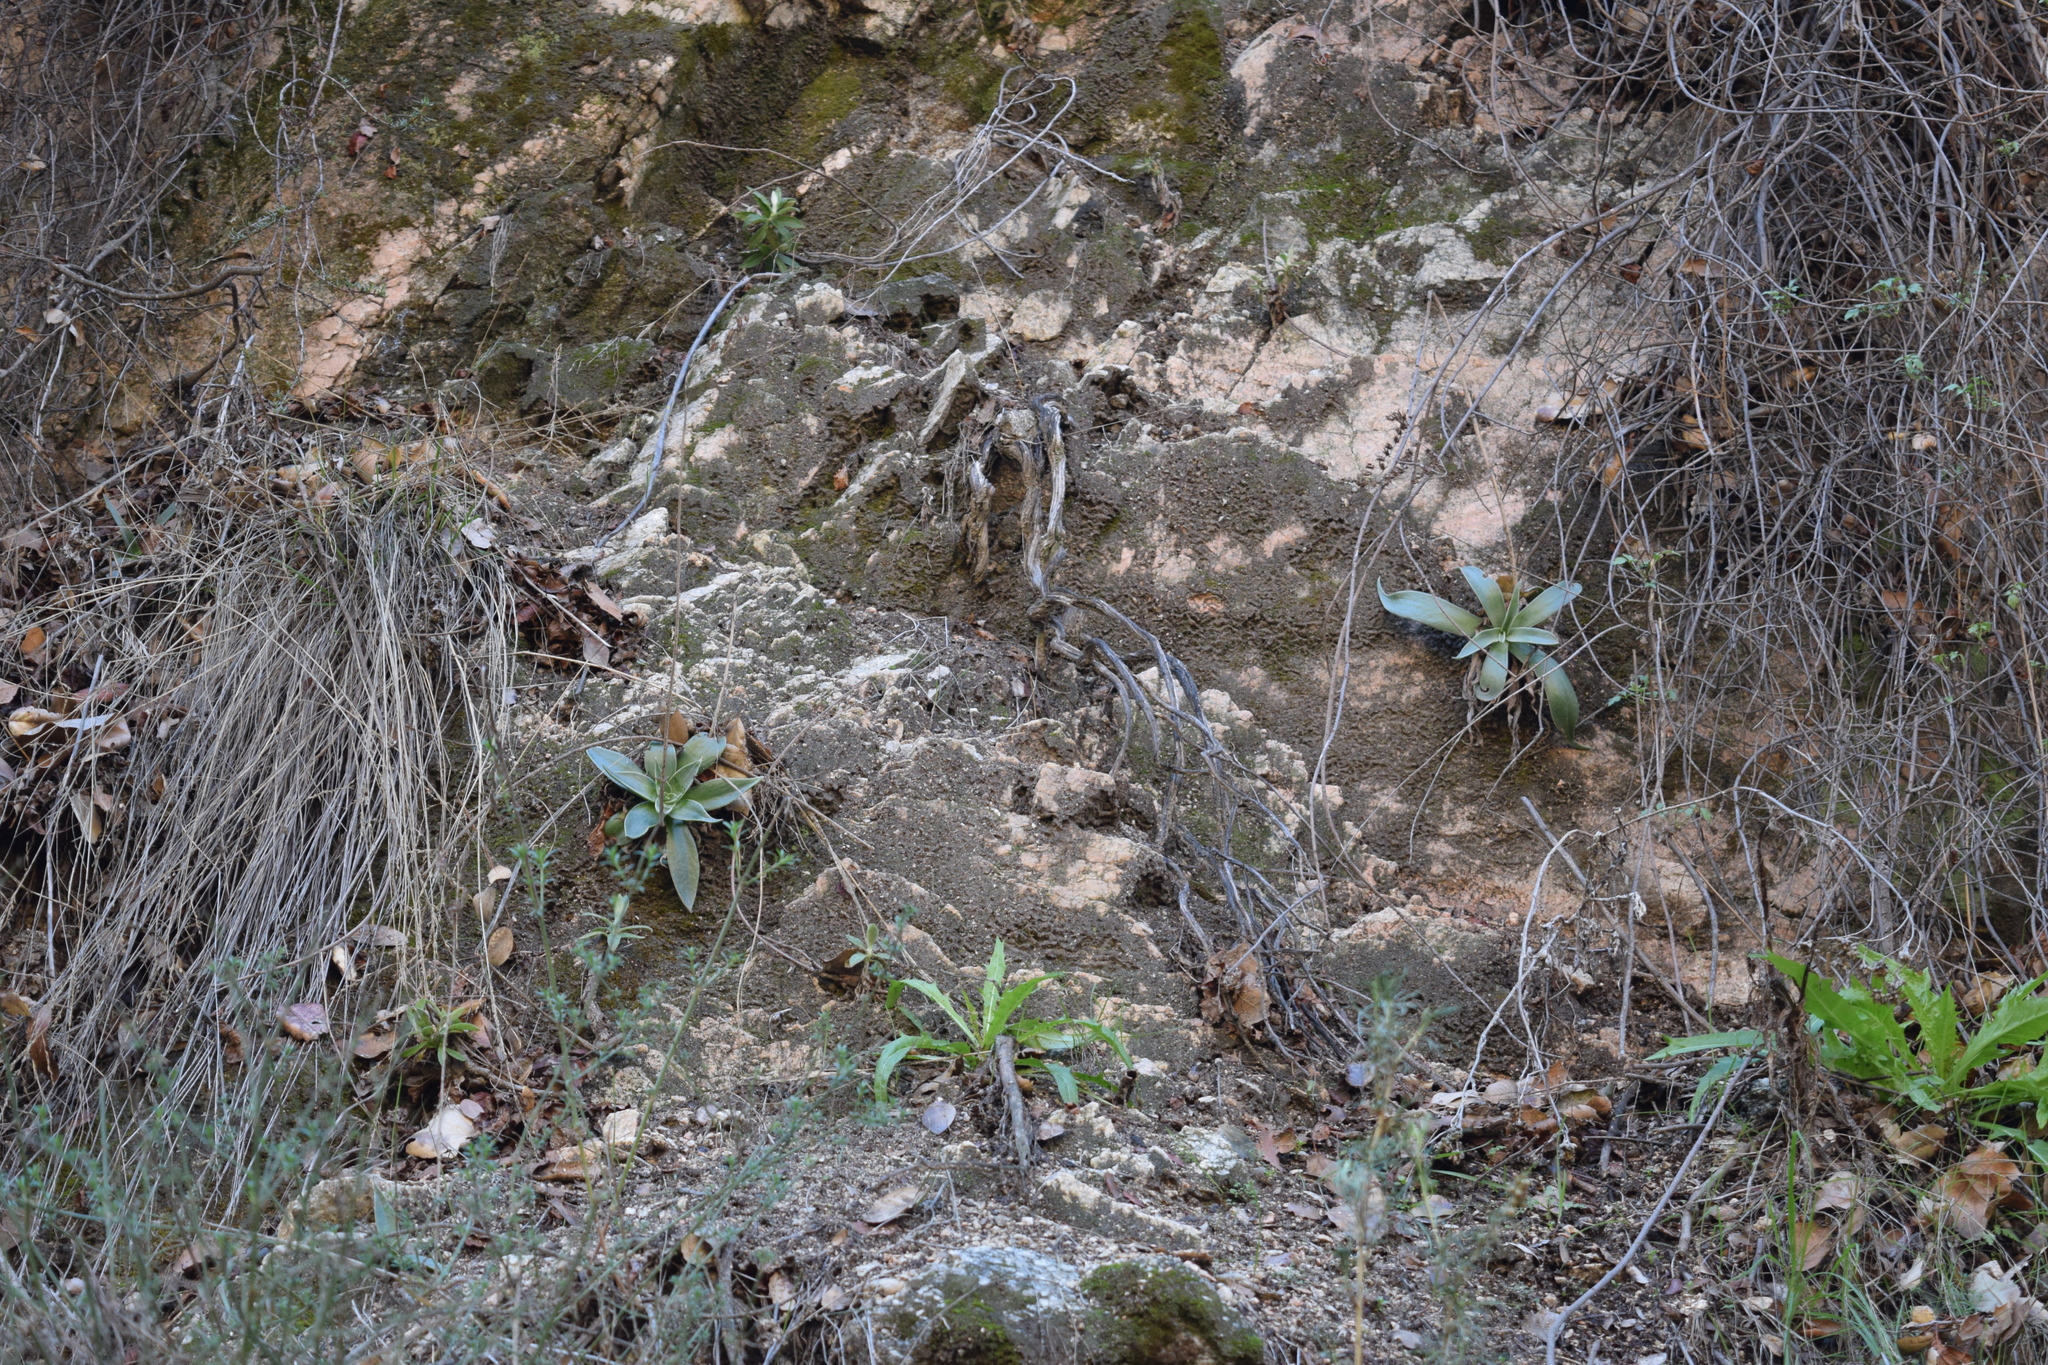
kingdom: Plantae
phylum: Tracheophyta
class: Magnoliopsida
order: Saxifragales
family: Crassulaceae
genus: Dudleya
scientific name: Dudleya lanceolata
